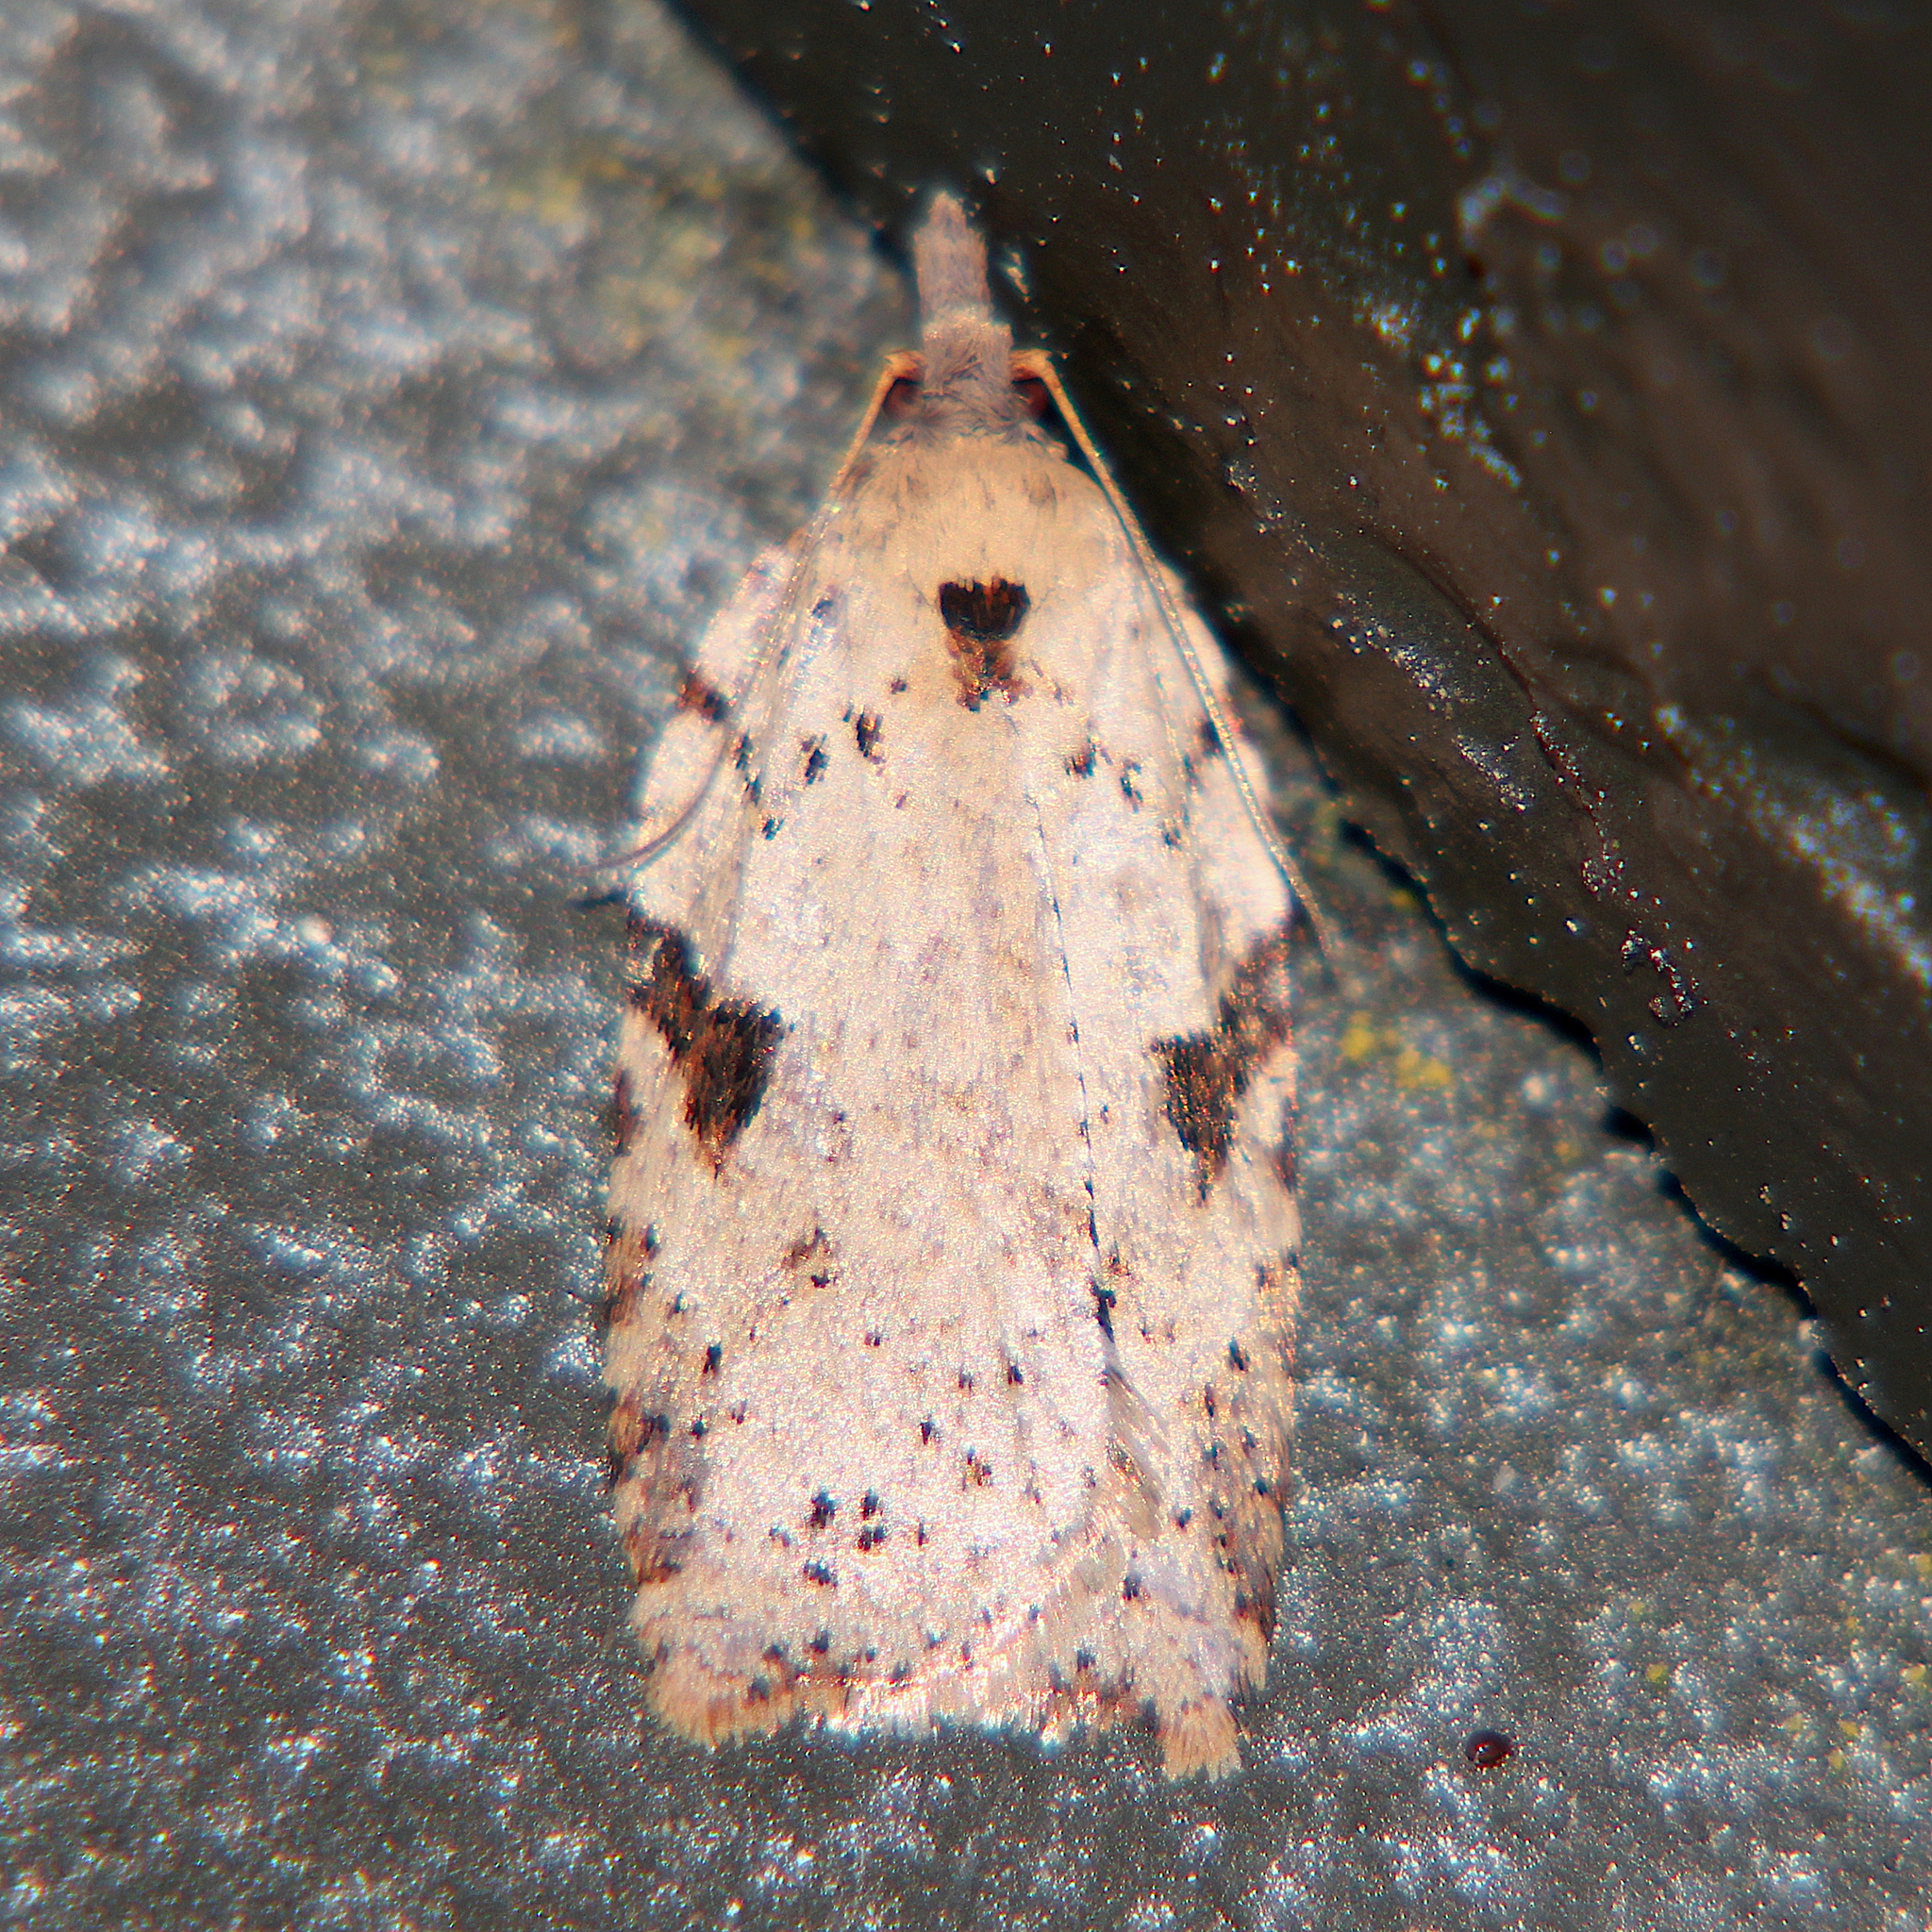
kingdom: Animalia
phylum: Arthropoda
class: Insecta
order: Lepidoptera
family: Tortricidae
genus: Leucotenes
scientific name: Leucotenes coprosmae
